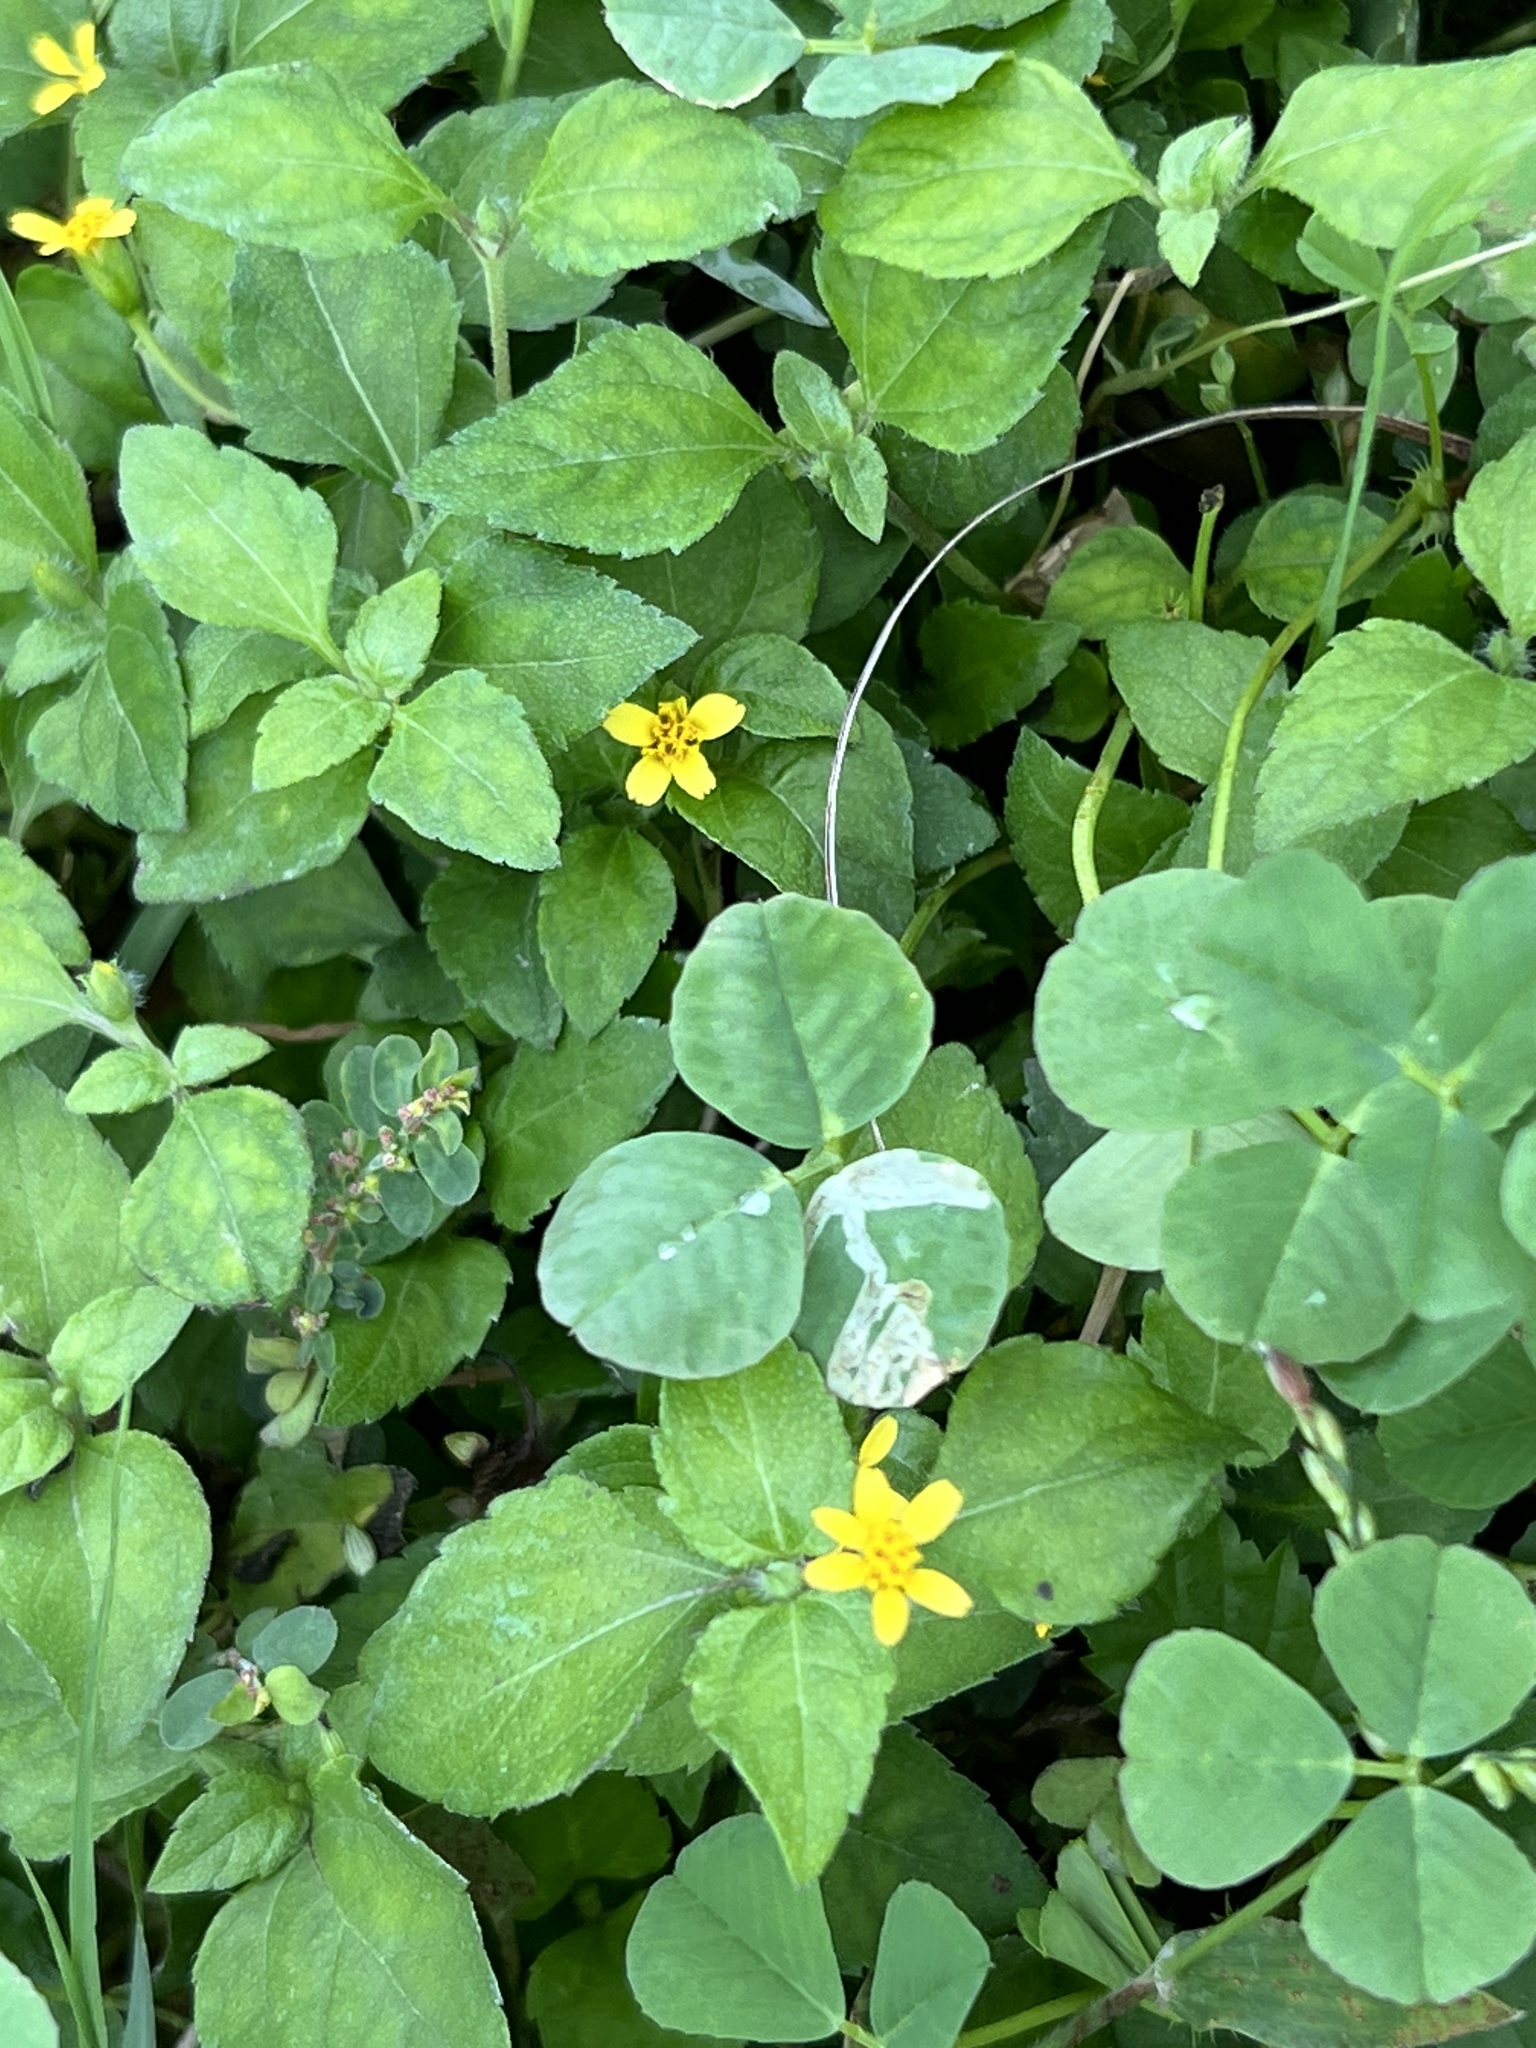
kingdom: Plantae
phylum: Tracheophyta
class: Magnoliopsida
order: Asterales
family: Asteraceae
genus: Calyptocarpus
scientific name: Calyptocarpus vialis
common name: Straggler daisy
